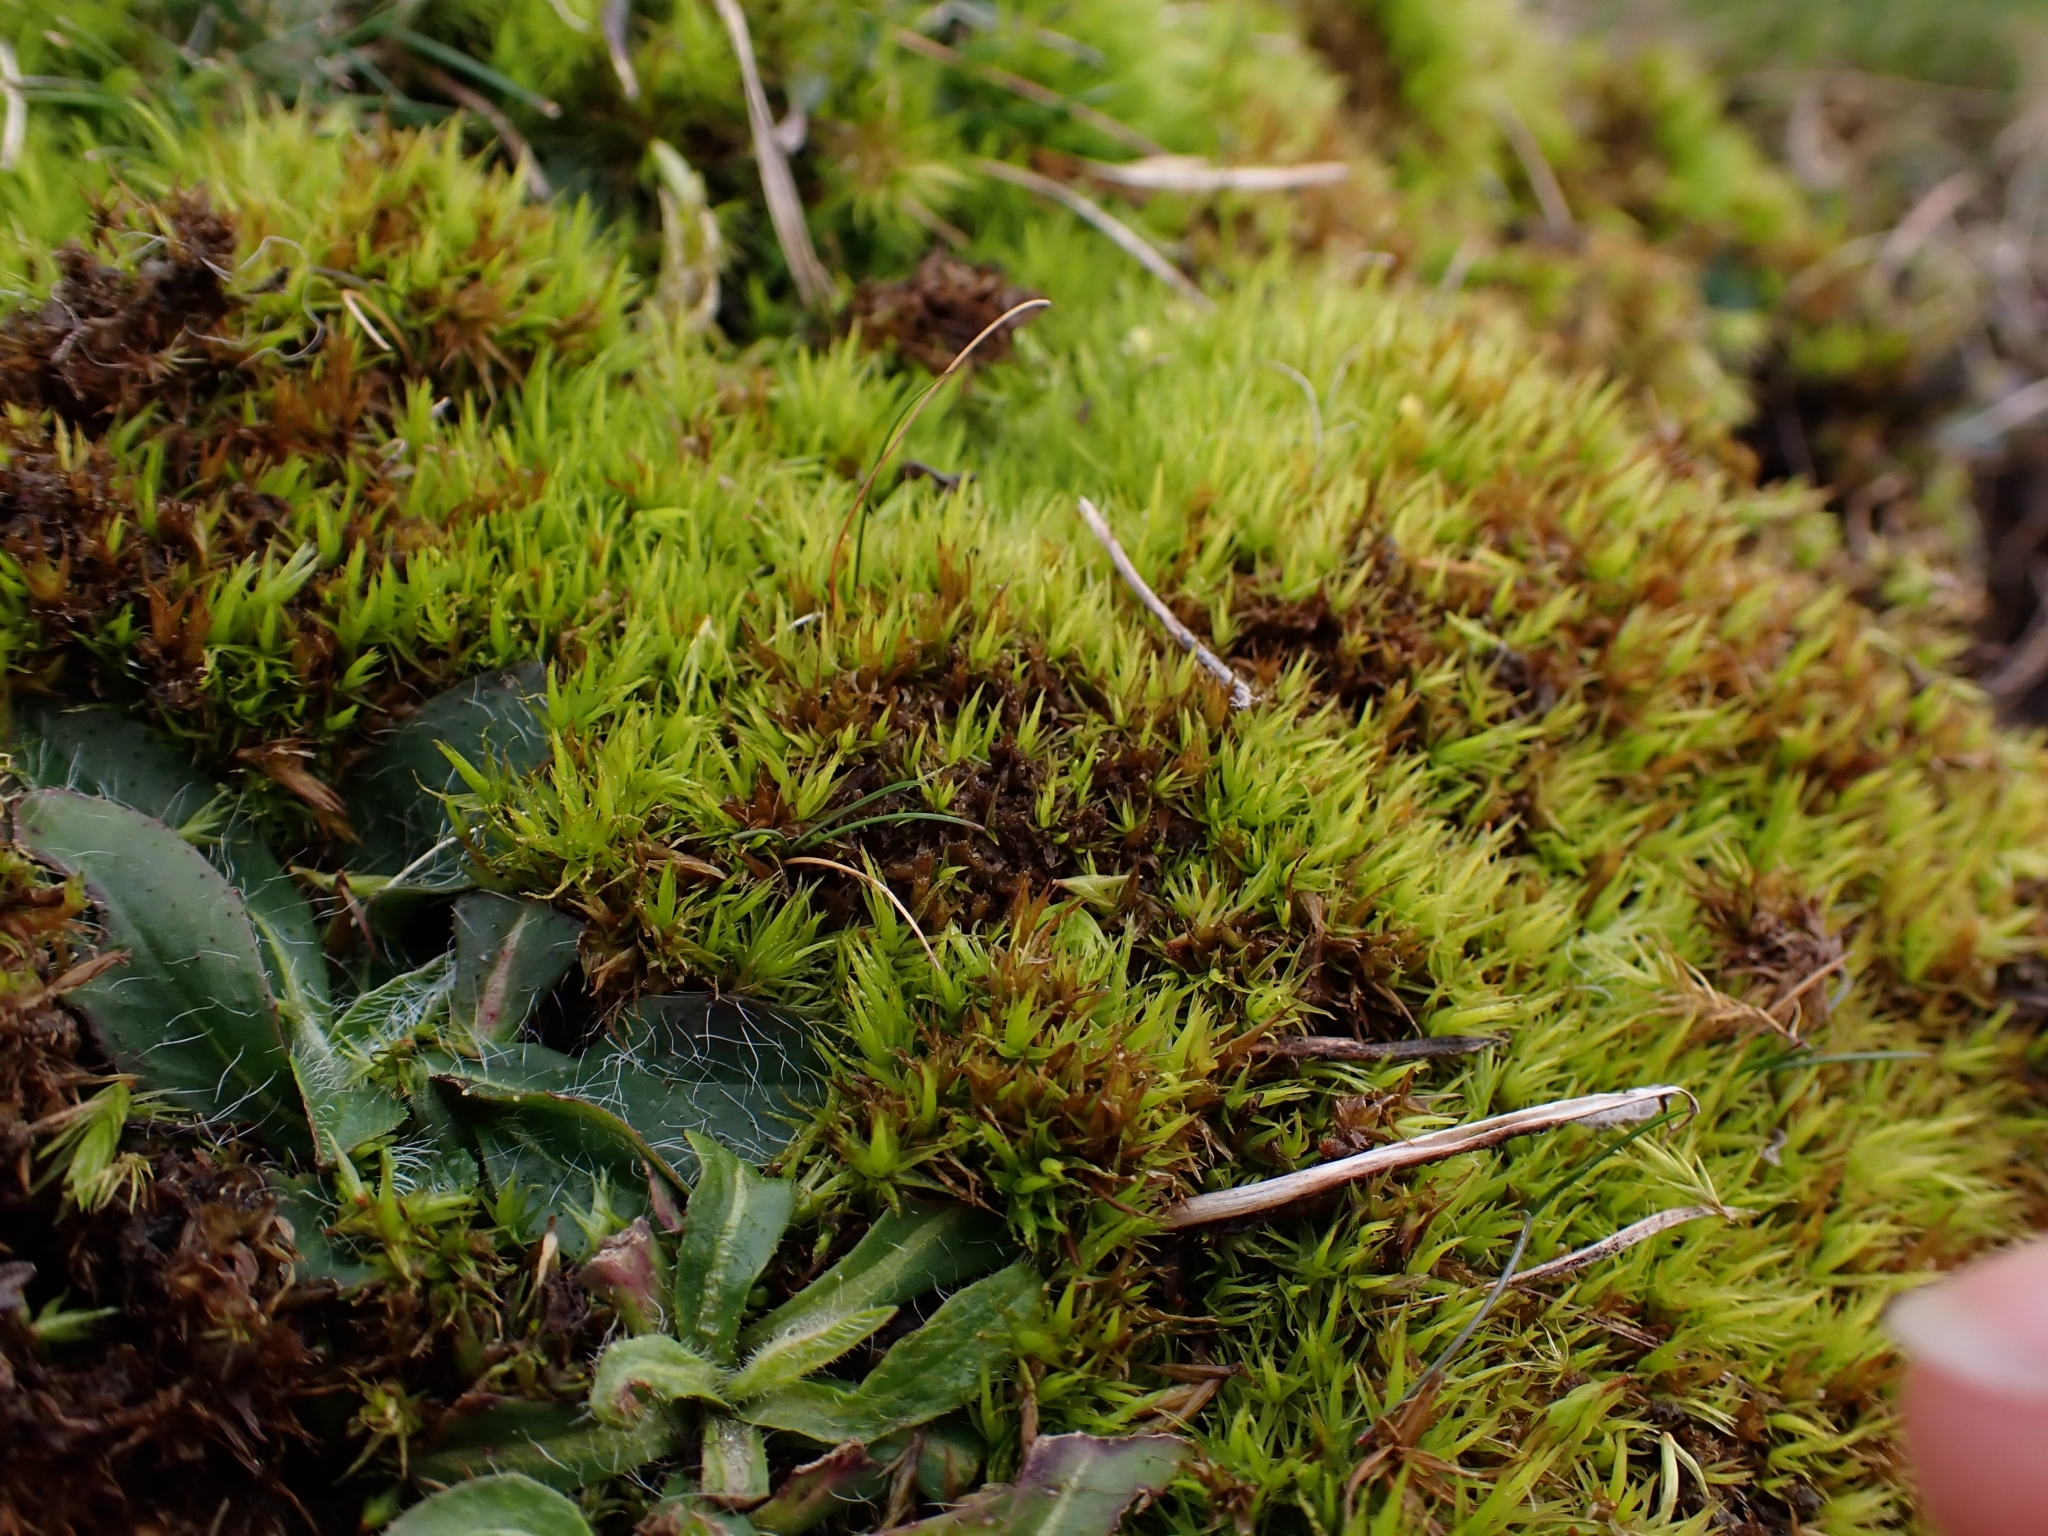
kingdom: Plantae
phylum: Bryophyta
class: Bryopsida
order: Dicranales
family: Dicranaceae
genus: Dicranum
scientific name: Dicranum bonjeanii
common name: Bonjean's broom moss
